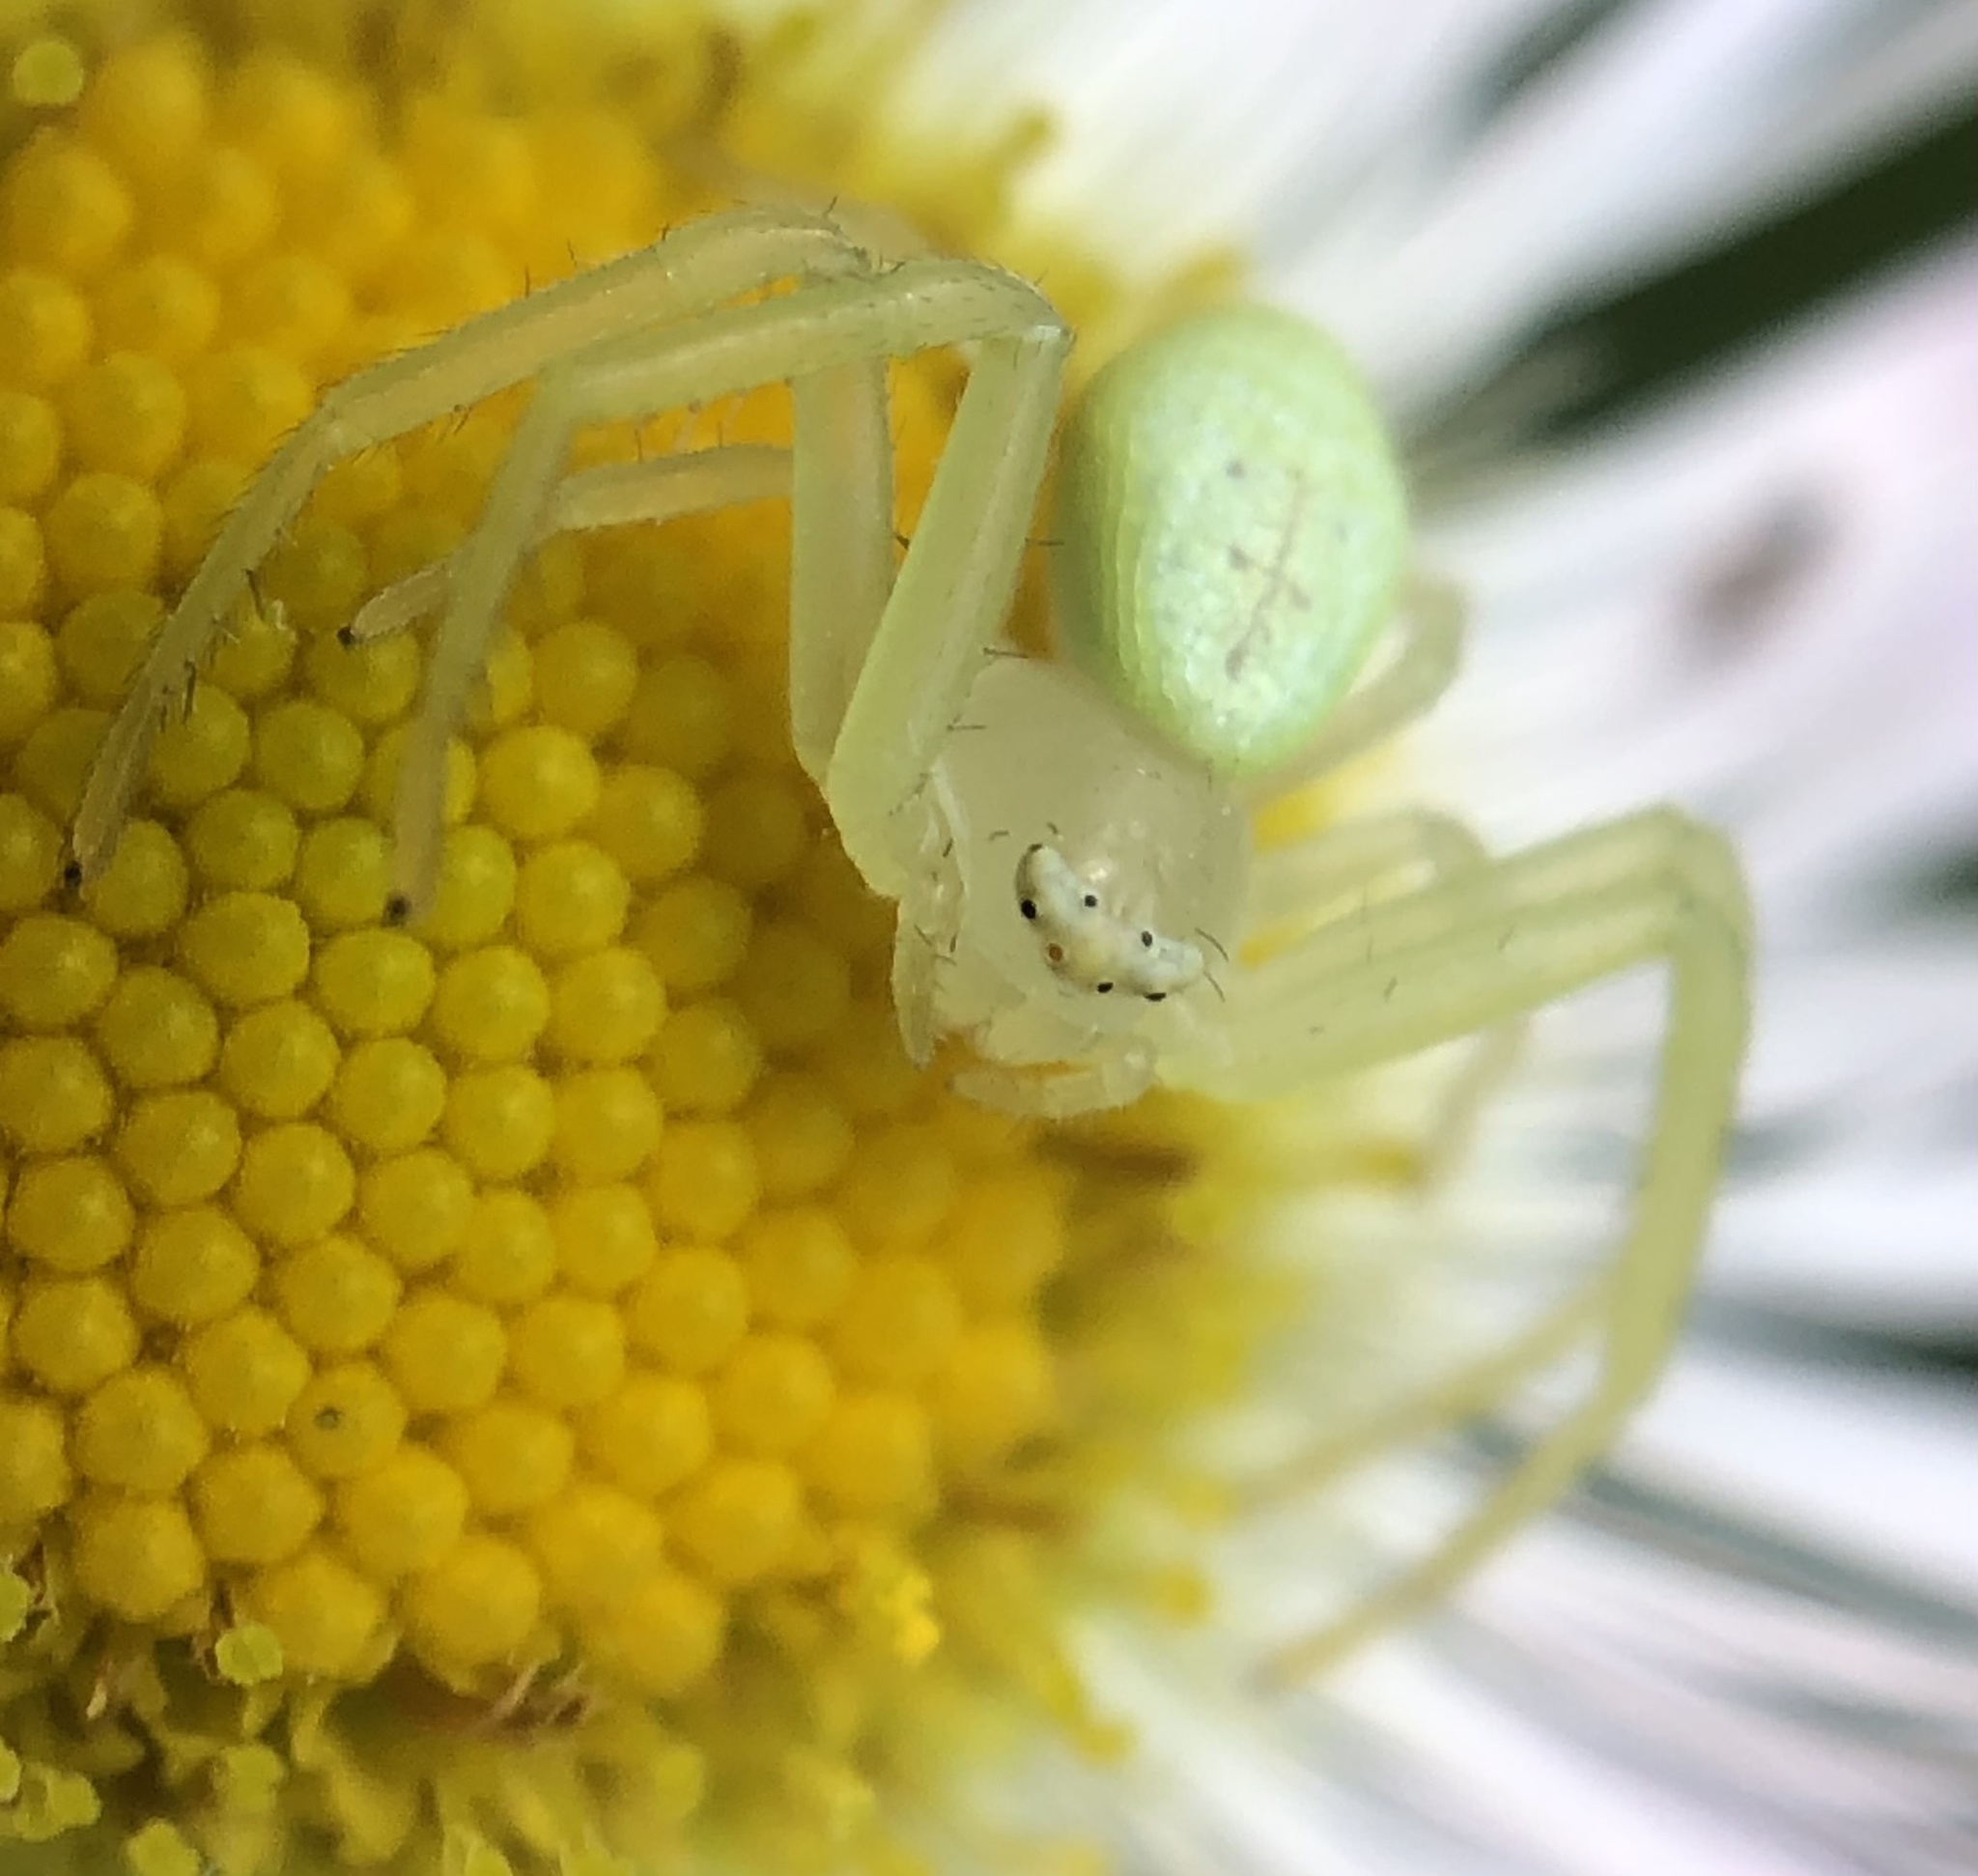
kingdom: Animalia
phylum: Arthropoda
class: Arachnida
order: Araneae
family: Thomisidae
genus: Misumessus
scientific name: Misumessus oblongus
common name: American green crab spider
